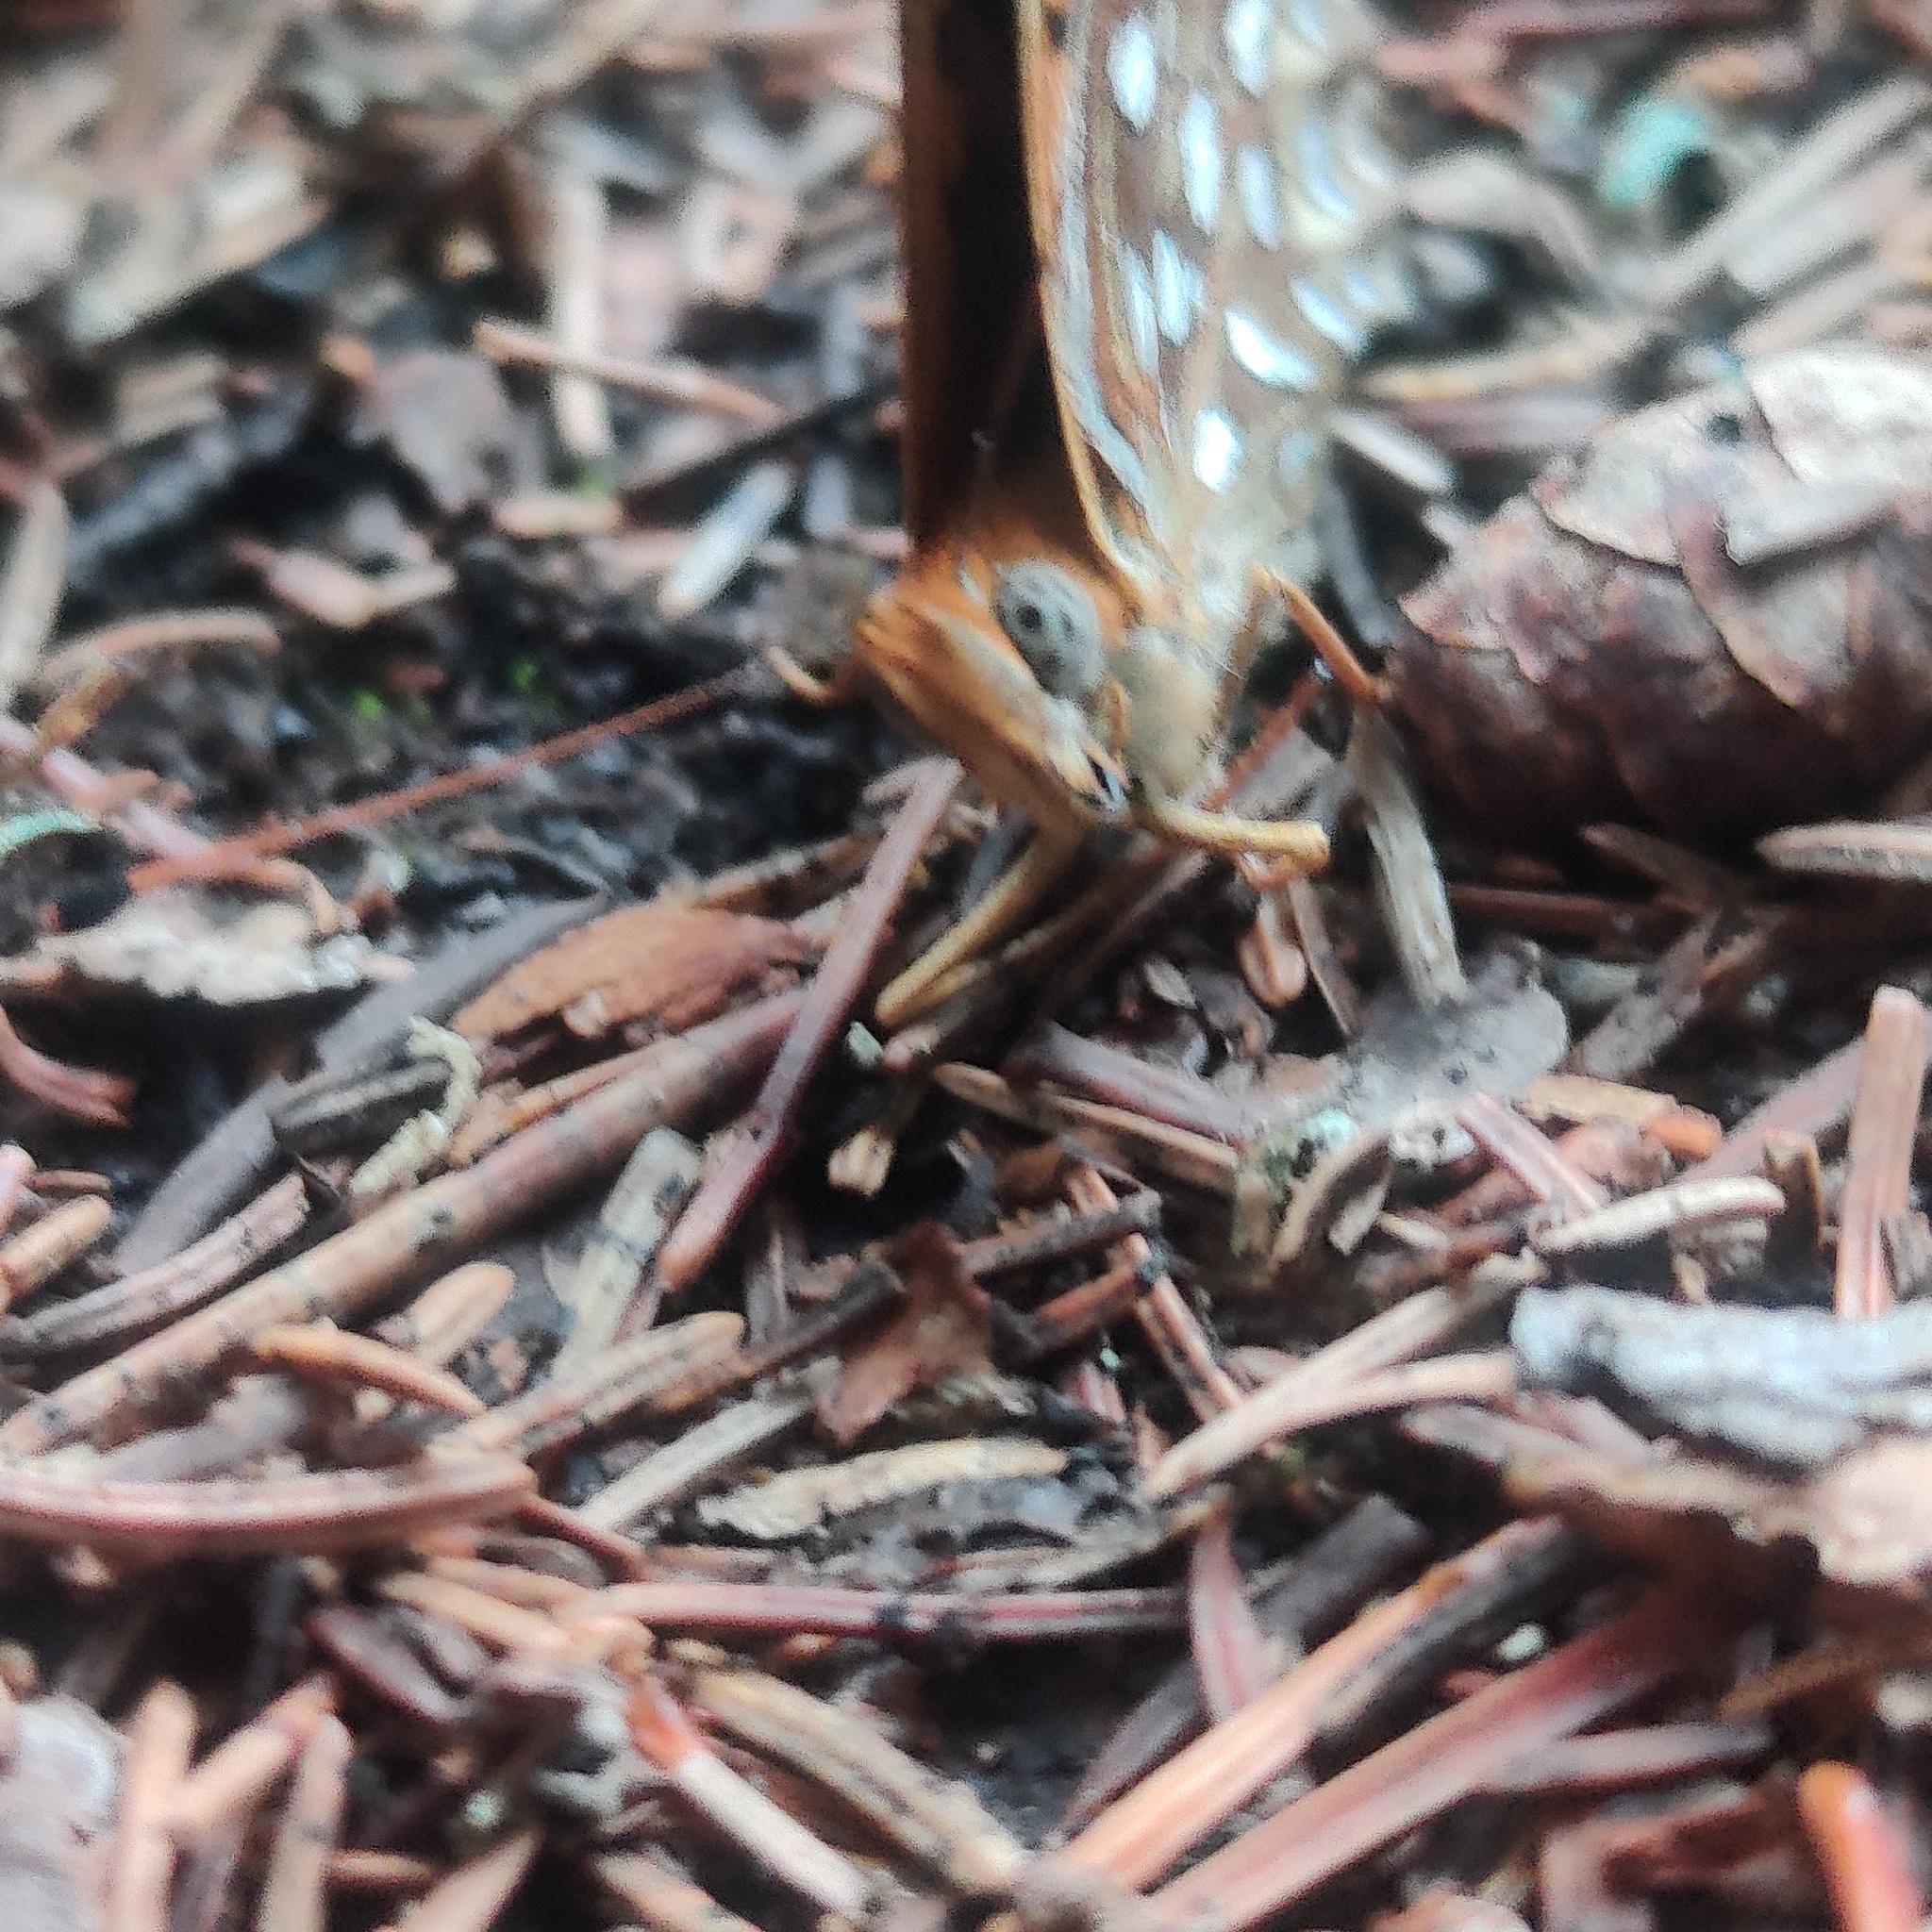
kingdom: Animalia
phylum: Arthropoda
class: Insecta
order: Lepidoptera
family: Nymphalidae
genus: Speyeria
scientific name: Speyeria atlantis
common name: Atlantis fritillary
